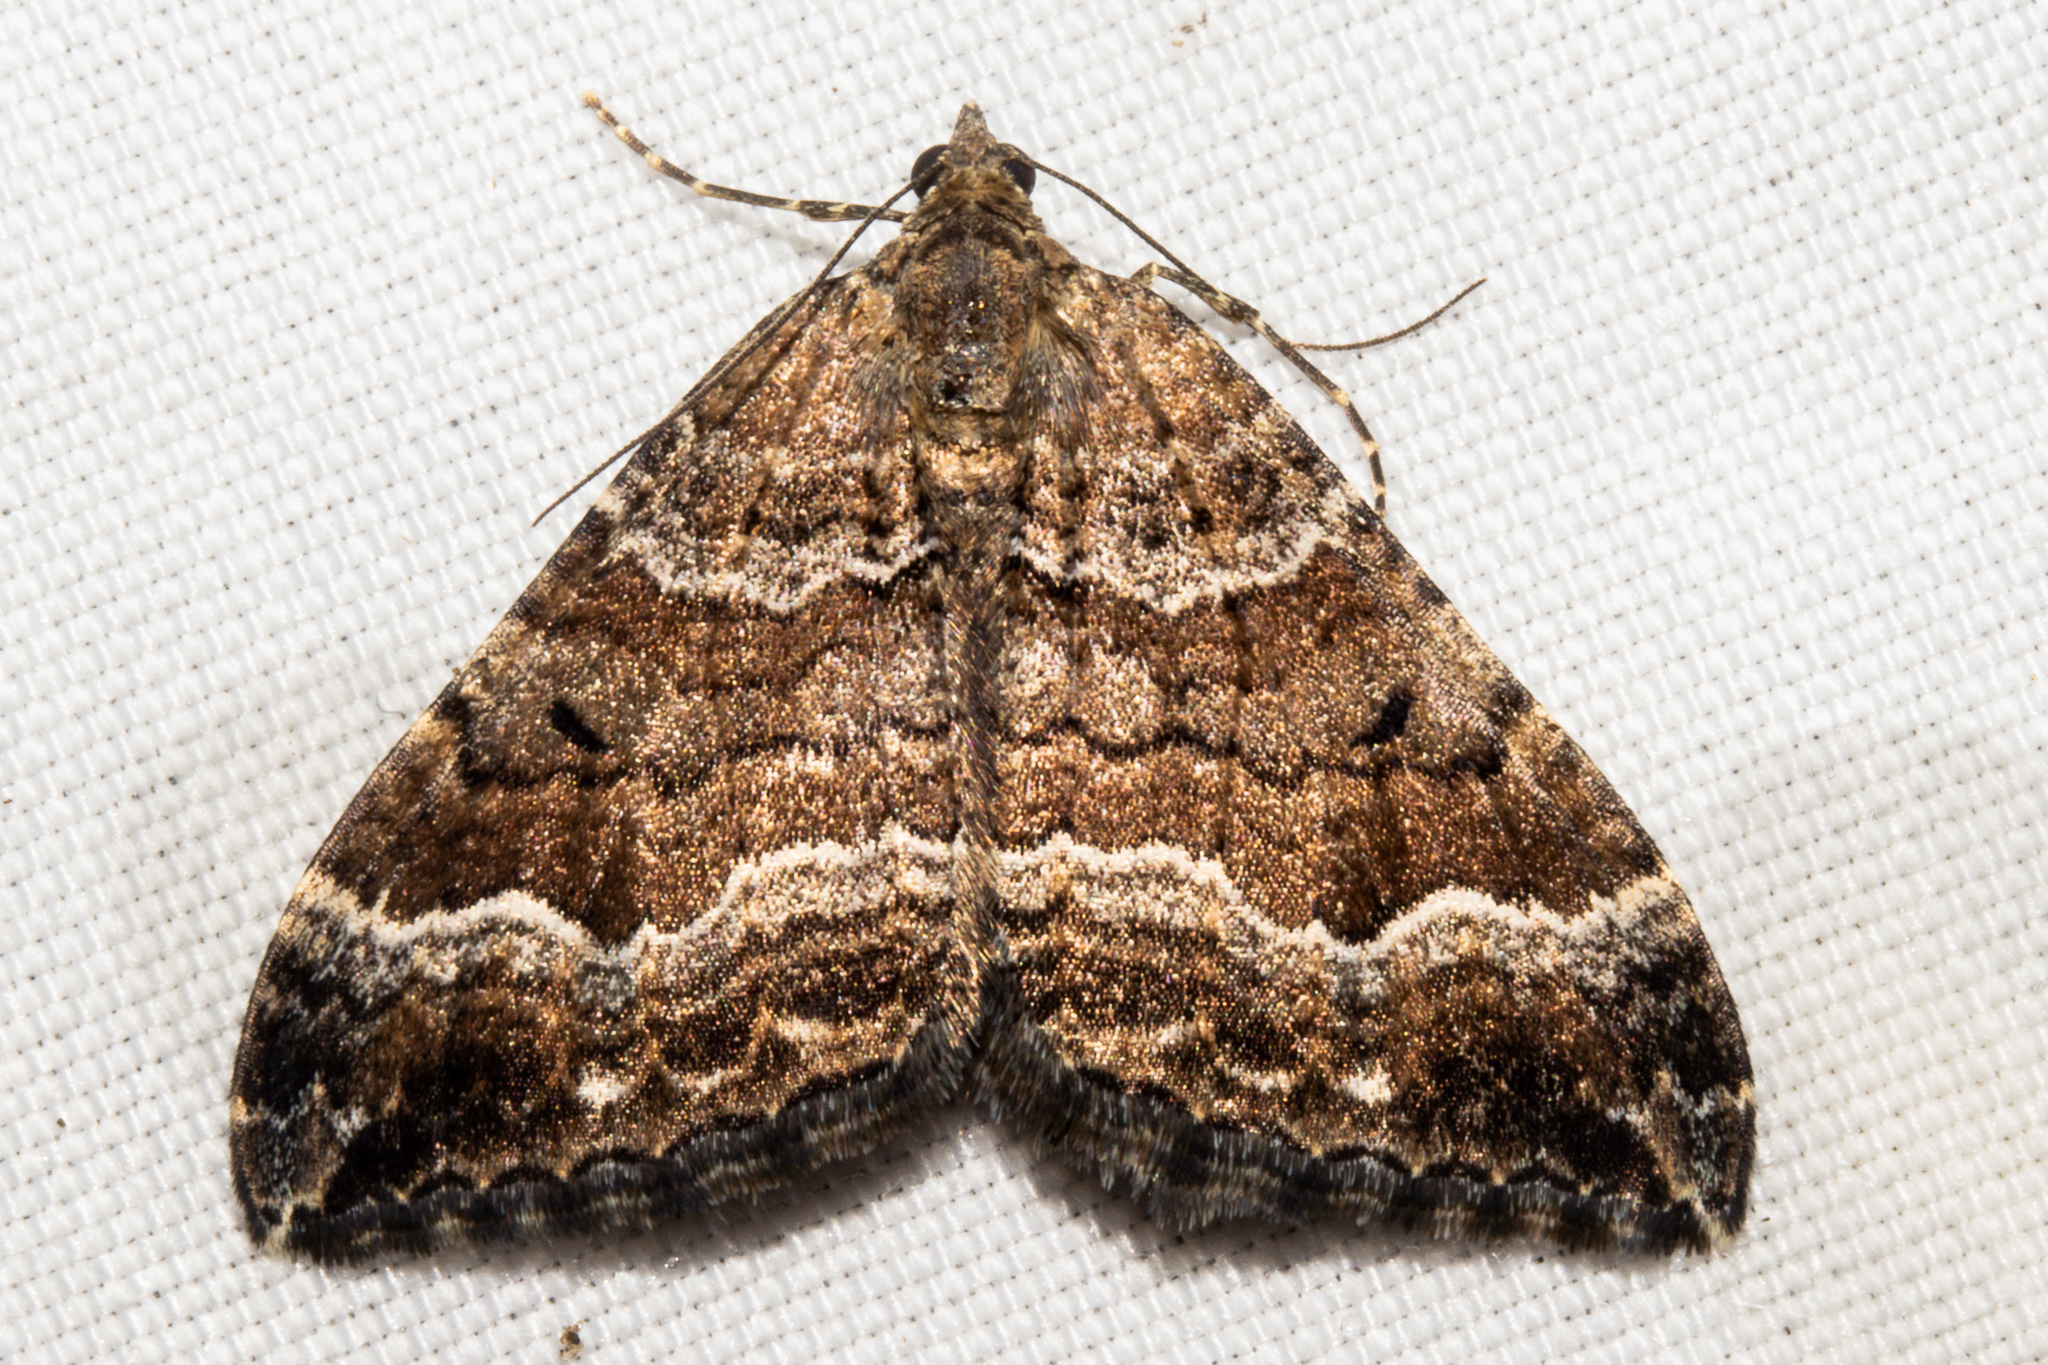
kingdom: Animalia
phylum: Arthropoda
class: Insecta
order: Lepidoptera
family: Geometridae
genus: Hydriomena
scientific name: Hydriomena deltoidata
